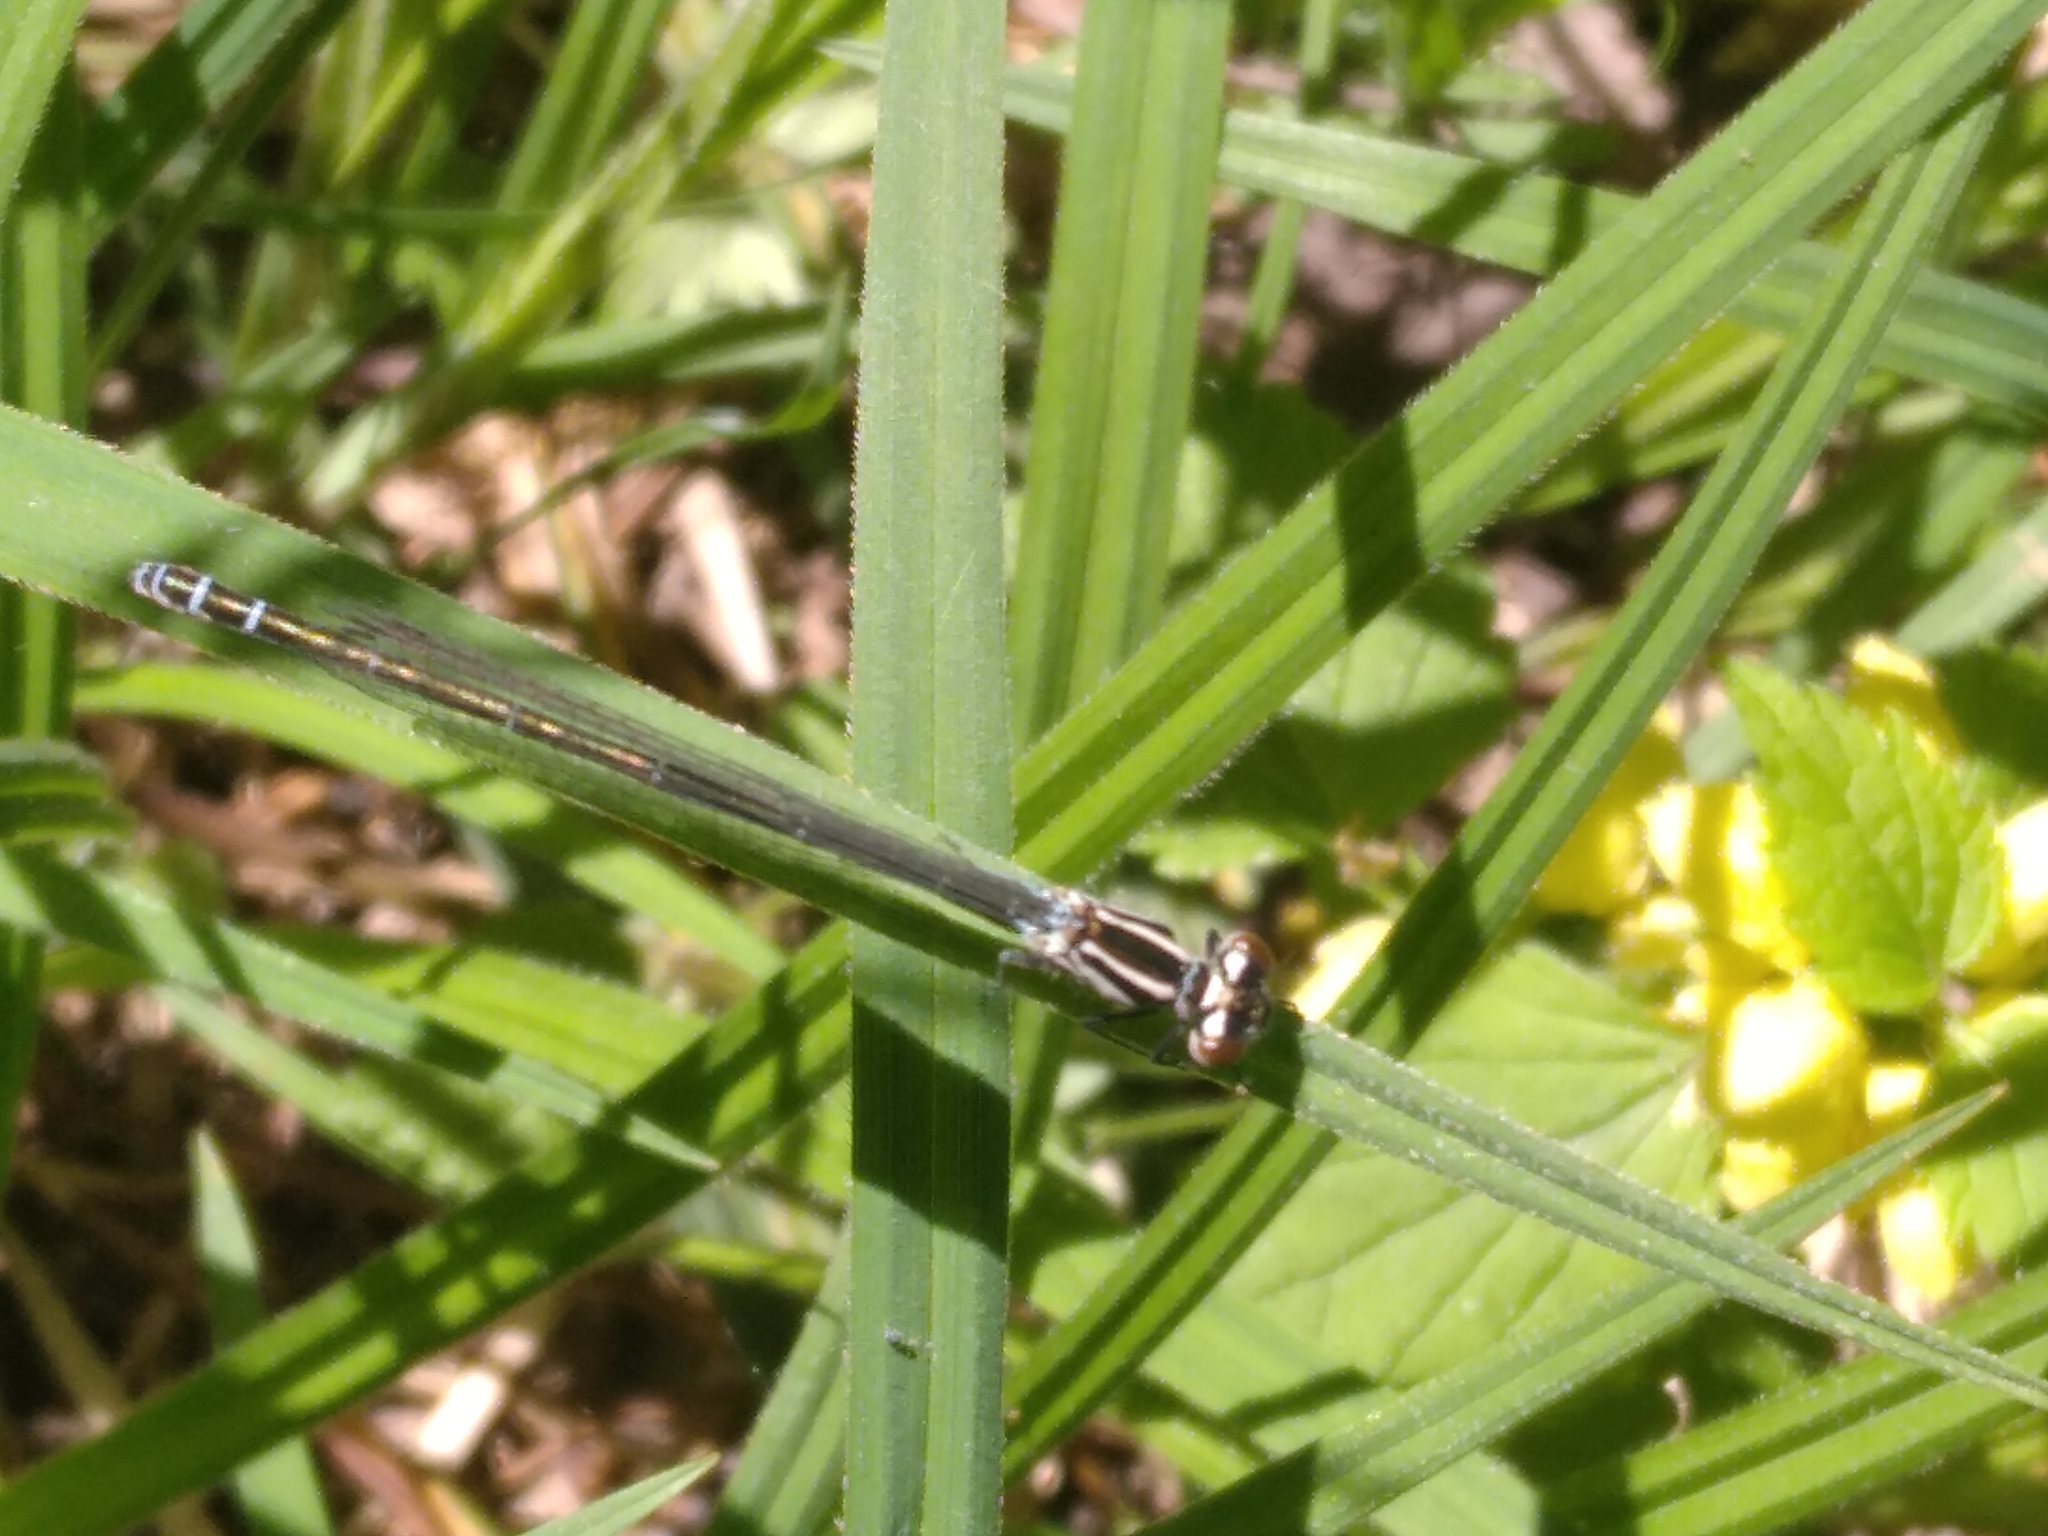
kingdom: Animalia
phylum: Arthropoda
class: Insecta
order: Odonata
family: Coenagrionidae
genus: Coenagrion
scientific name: Coenagrion puella
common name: Azure damselfly
